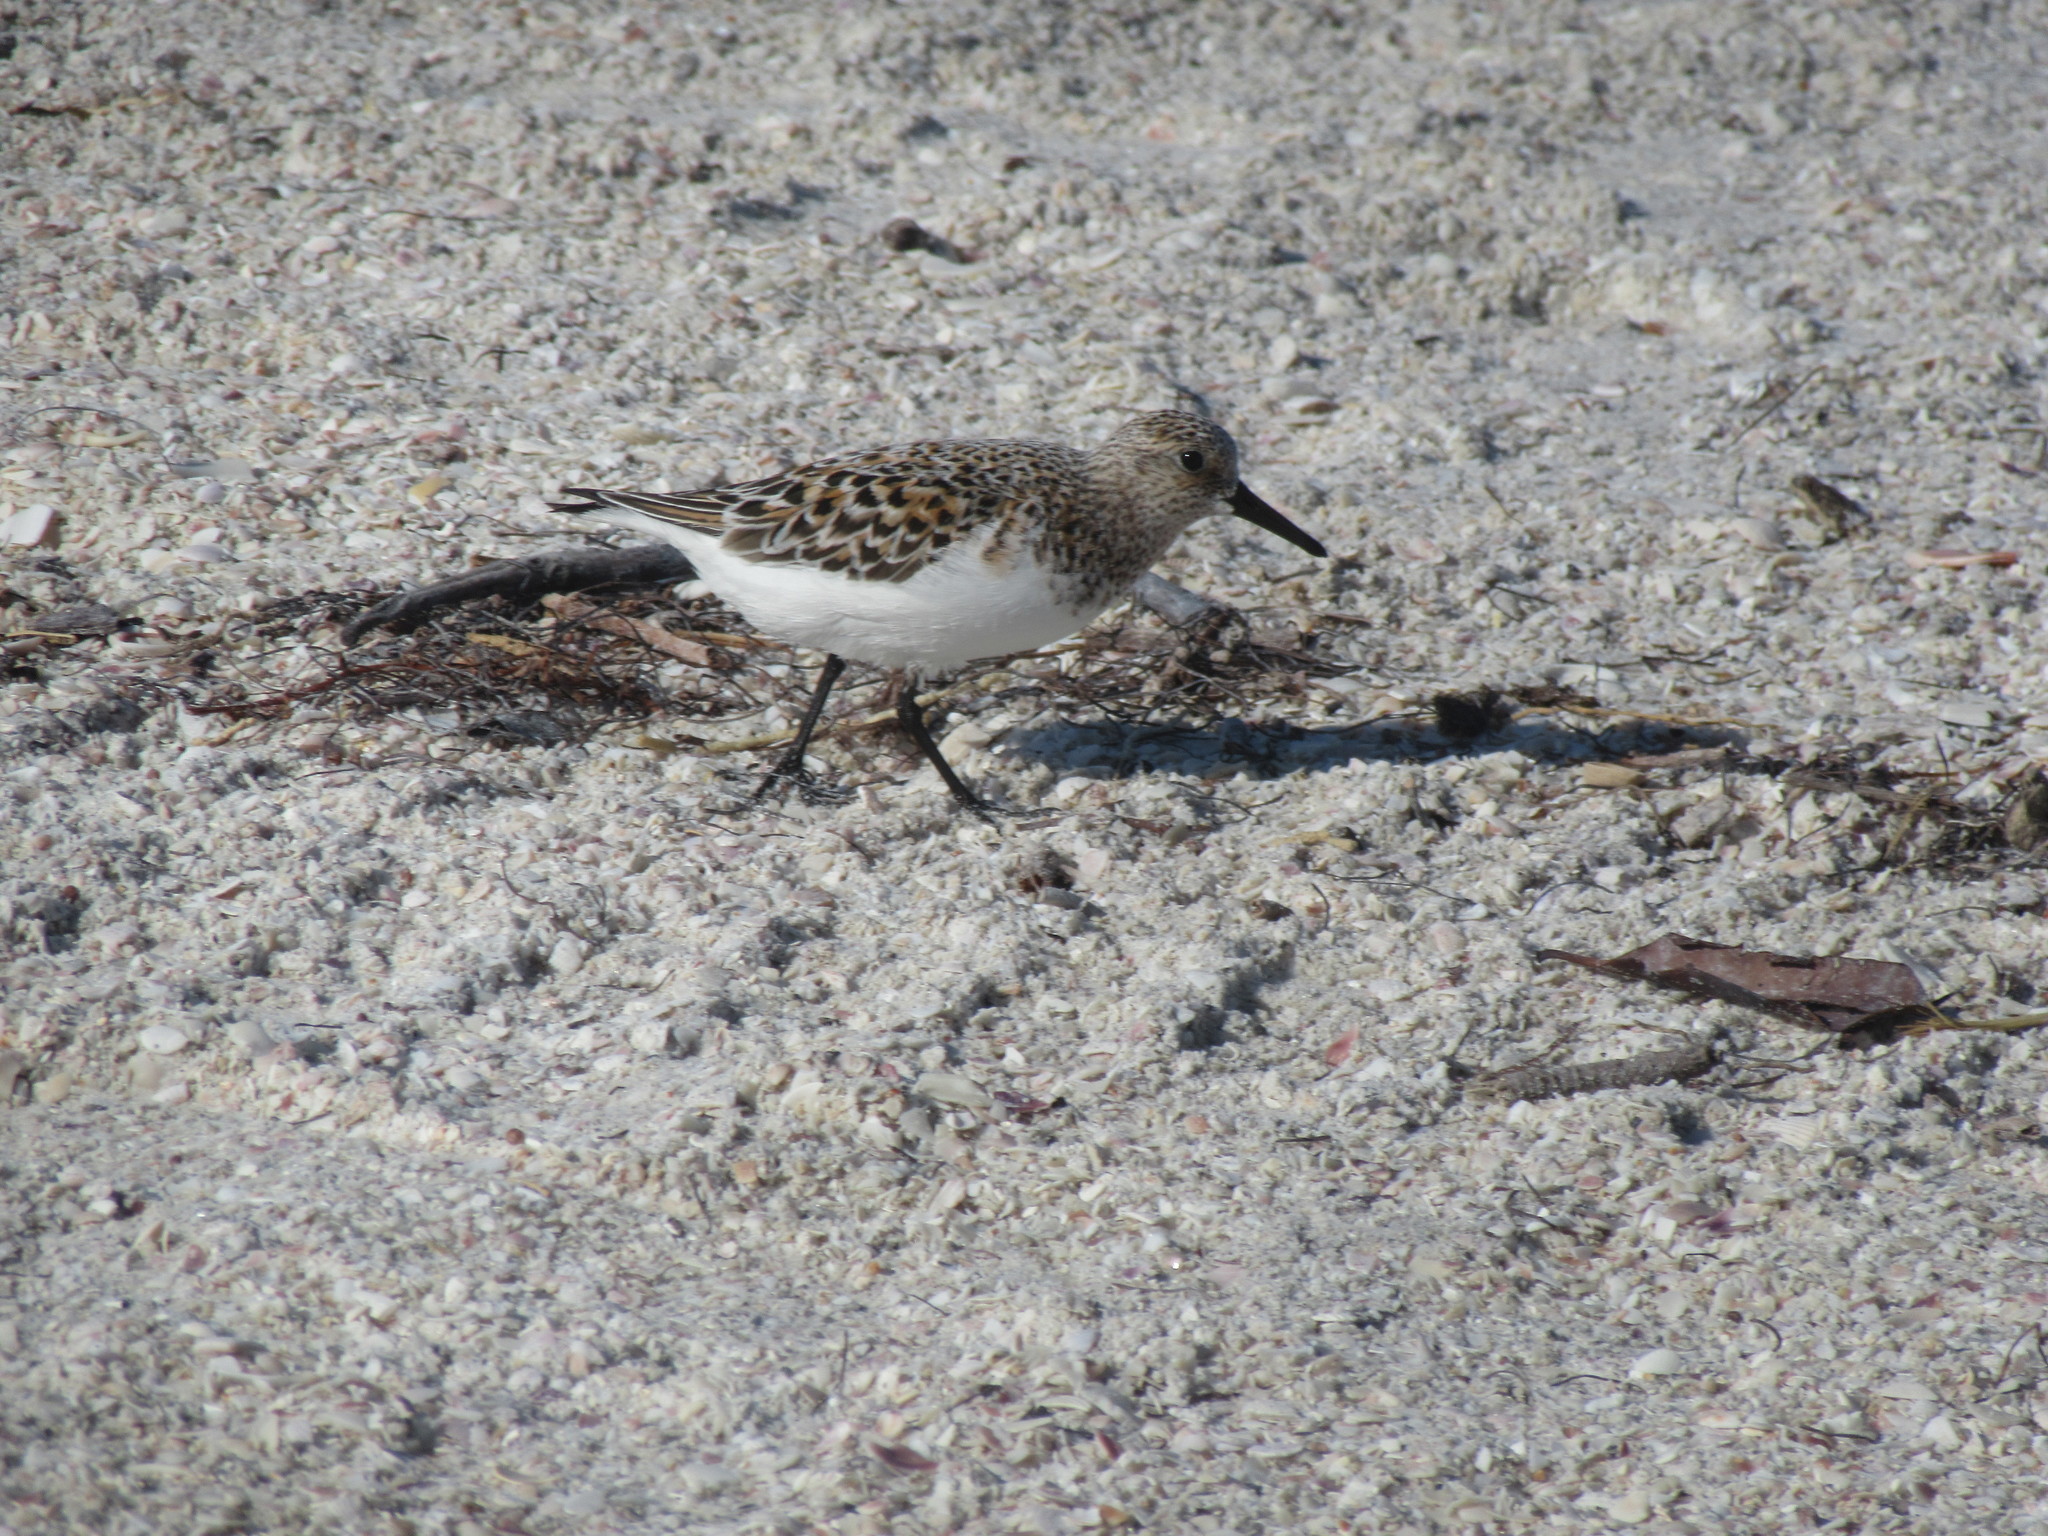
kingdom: Animalia
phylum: Chordata
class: Aves
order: Charadriiformes
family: Scolopacidae
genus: Calidris
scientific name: Calidris alba
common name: Sanderling
